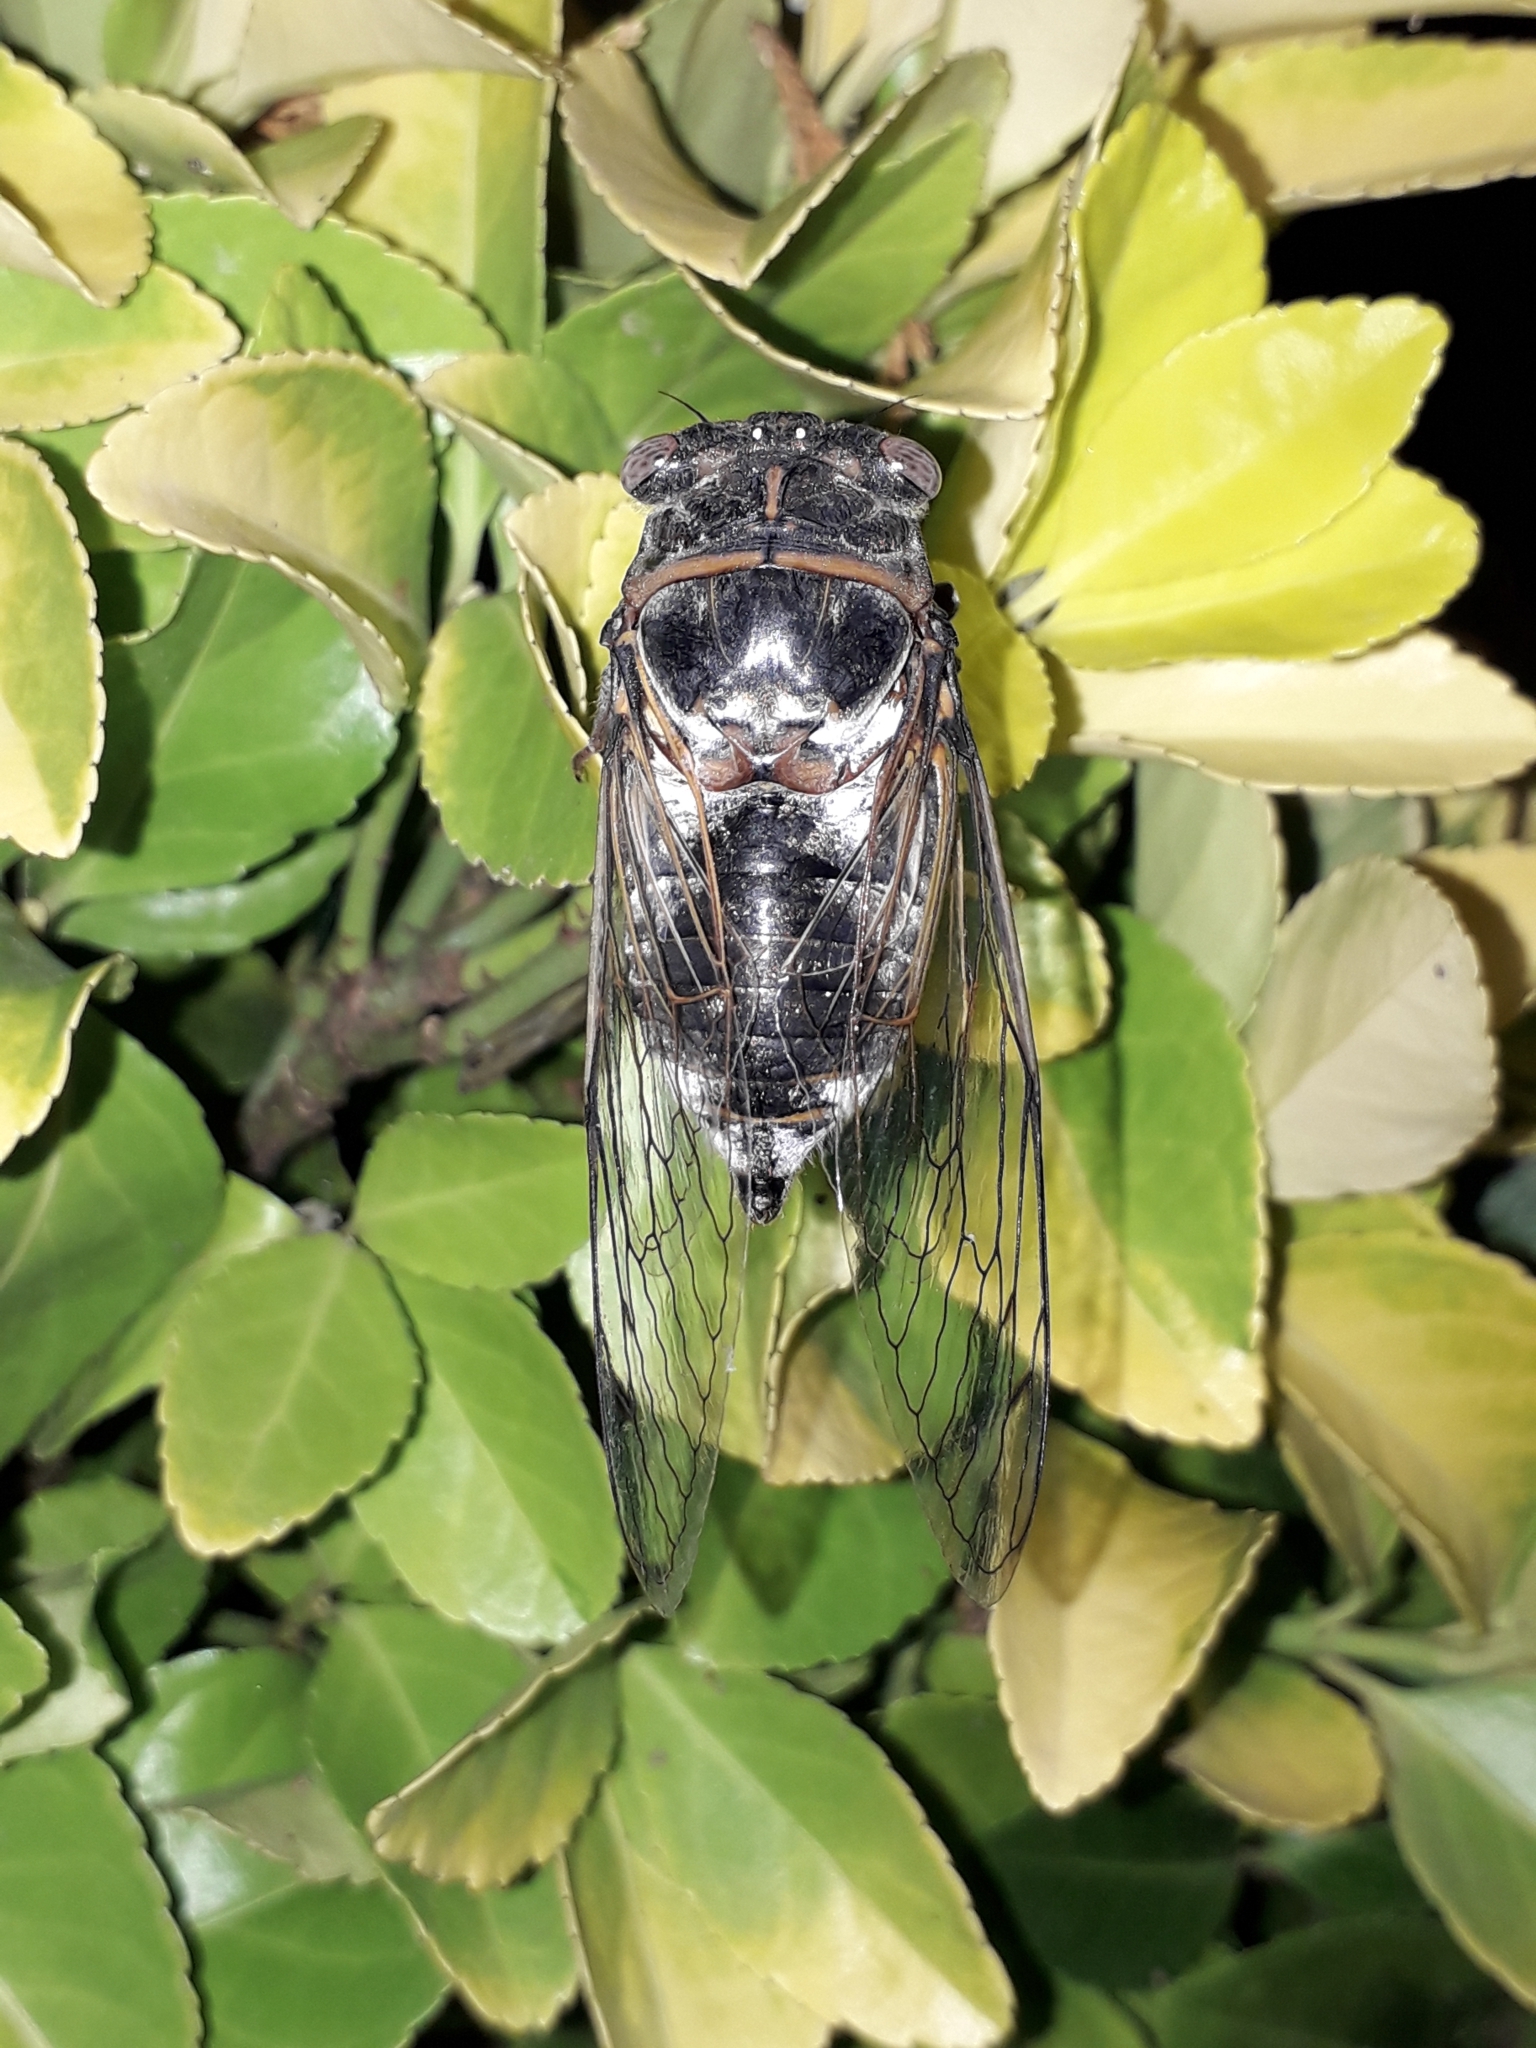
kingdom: Animalia
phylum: Arthropoda
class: Insecta
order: Hemiptera
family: Cicadidae
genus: Lyristes
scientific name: Lyristes plebejus
